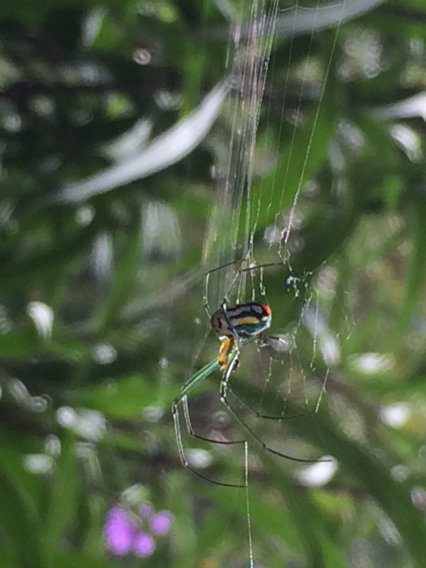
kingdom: Animalia
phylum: Arthropoda
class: Arachnida
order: Araneae
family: Tetragnathidae
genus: Leucauge
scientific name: Leucauge argyrobapta
